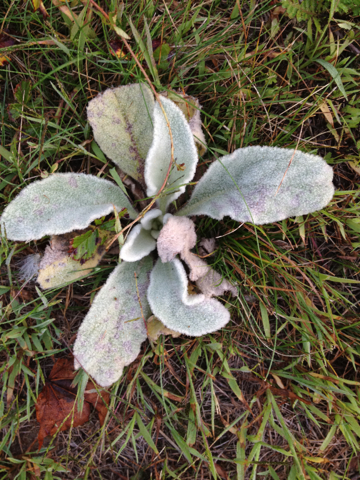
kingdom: Plantae
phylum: Tracheophyta
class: Magnoliopsida
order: Lamiales
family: Scrophulariaceae
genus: Verbascum
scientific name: Verbascum thapsus
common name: Common mullein
